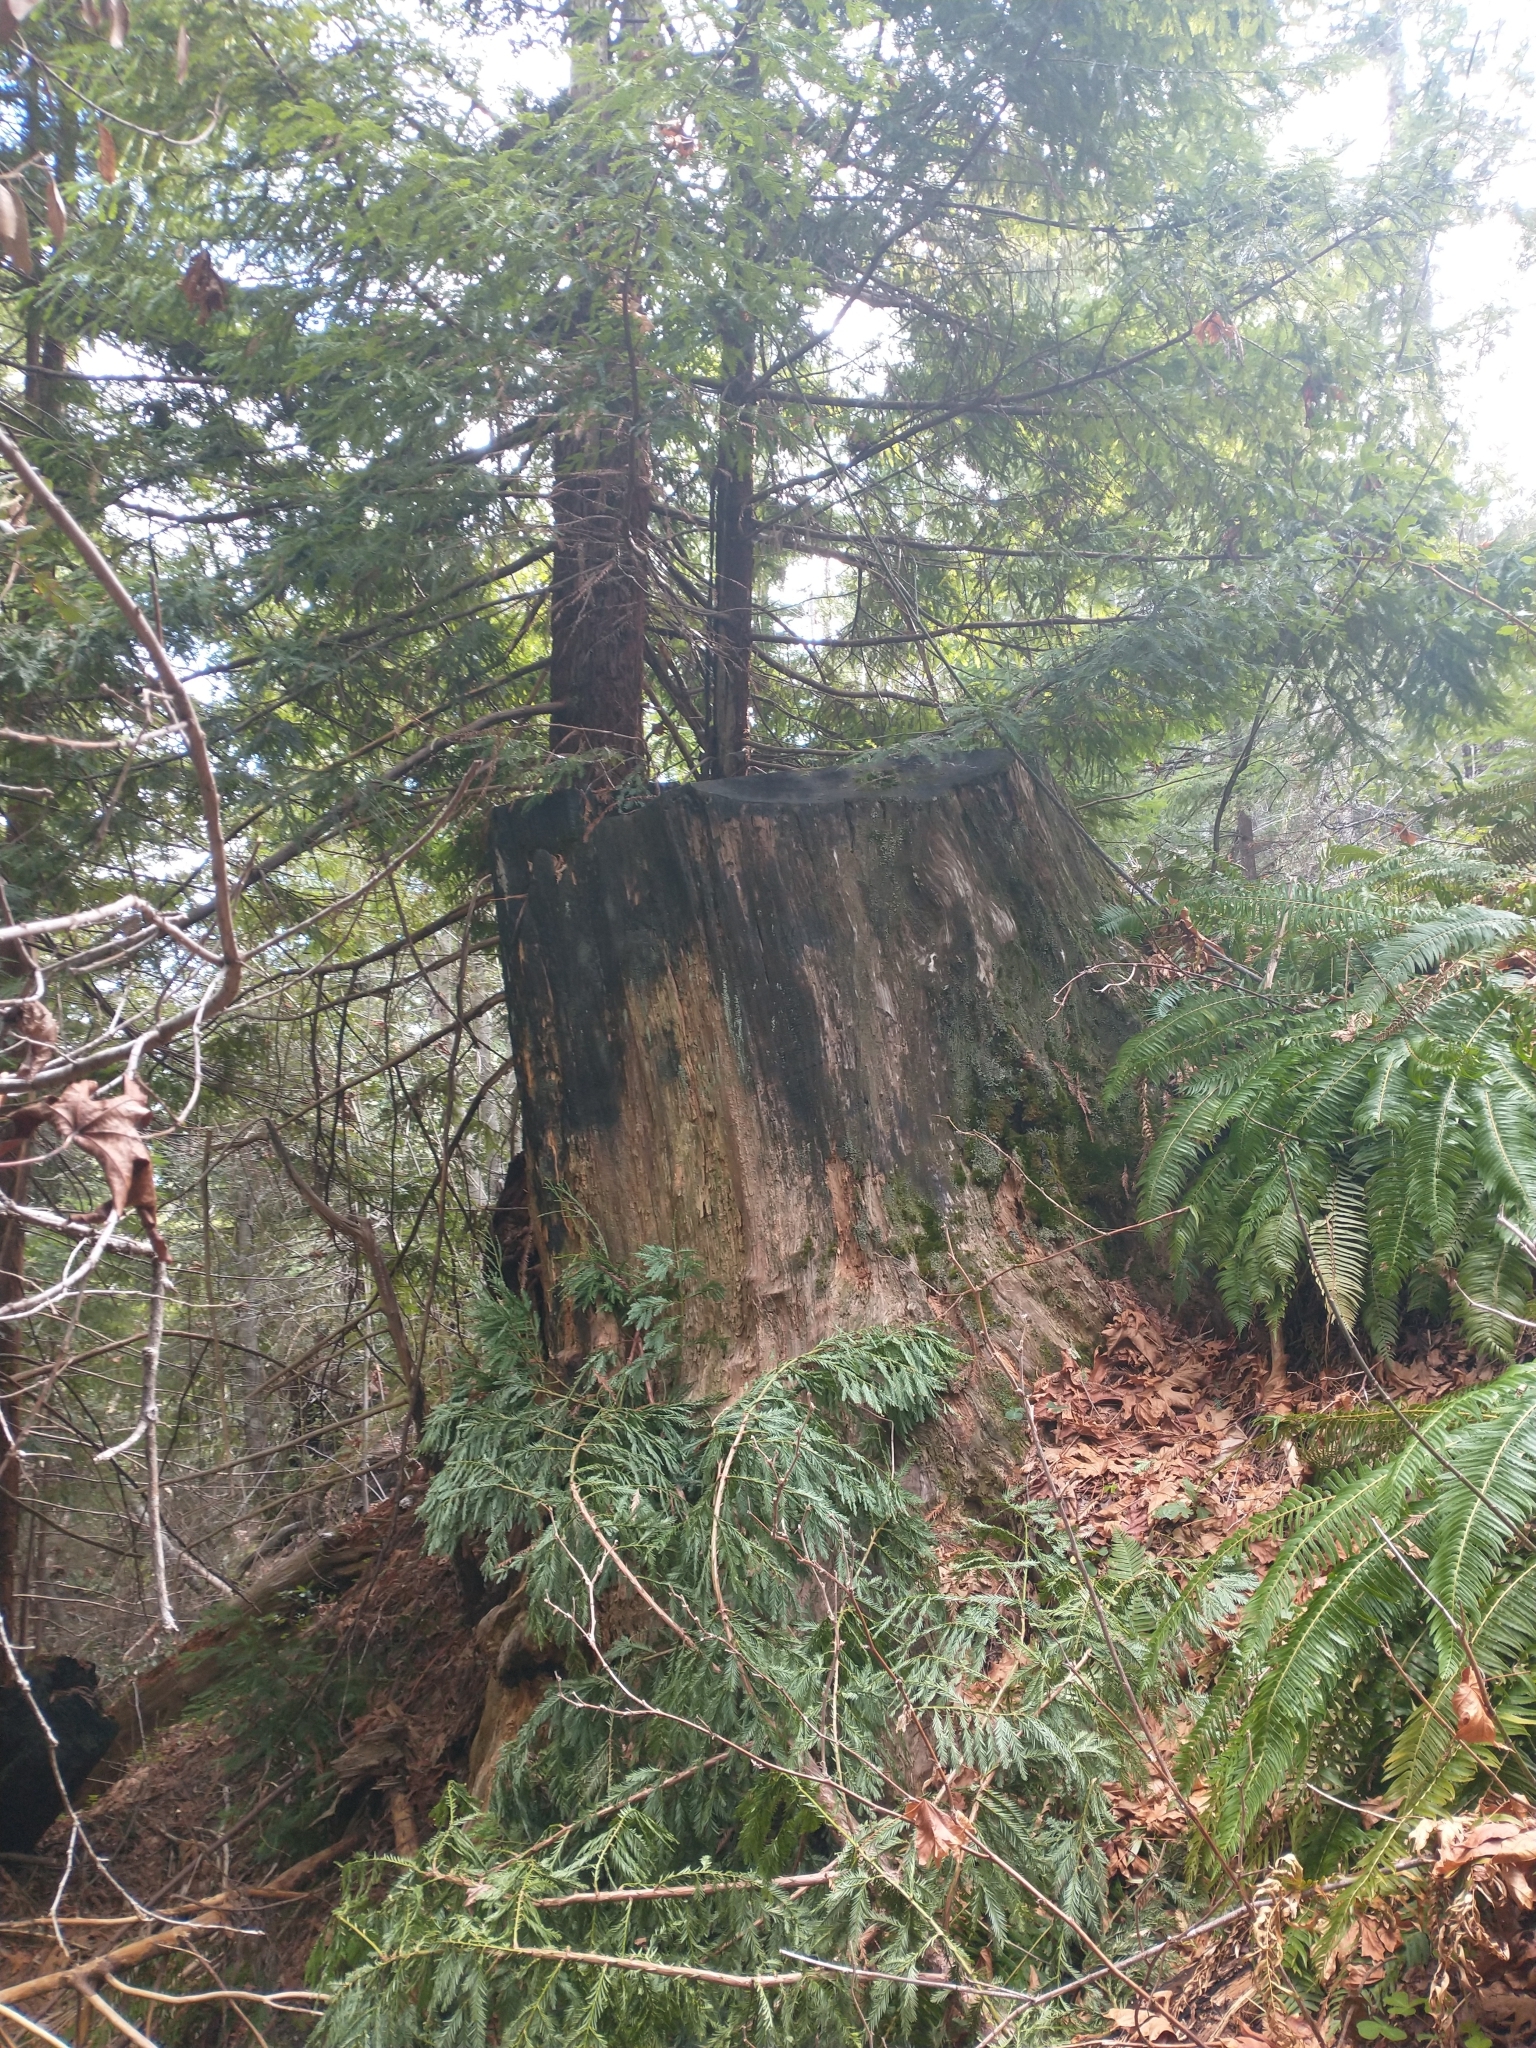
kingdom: Plantae
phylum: Tracheophyta
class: Pinopsida
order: Pinales
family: Cupressaceae
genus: Sequoia
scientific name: Sequoia sempervirens
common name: Coast redwood
